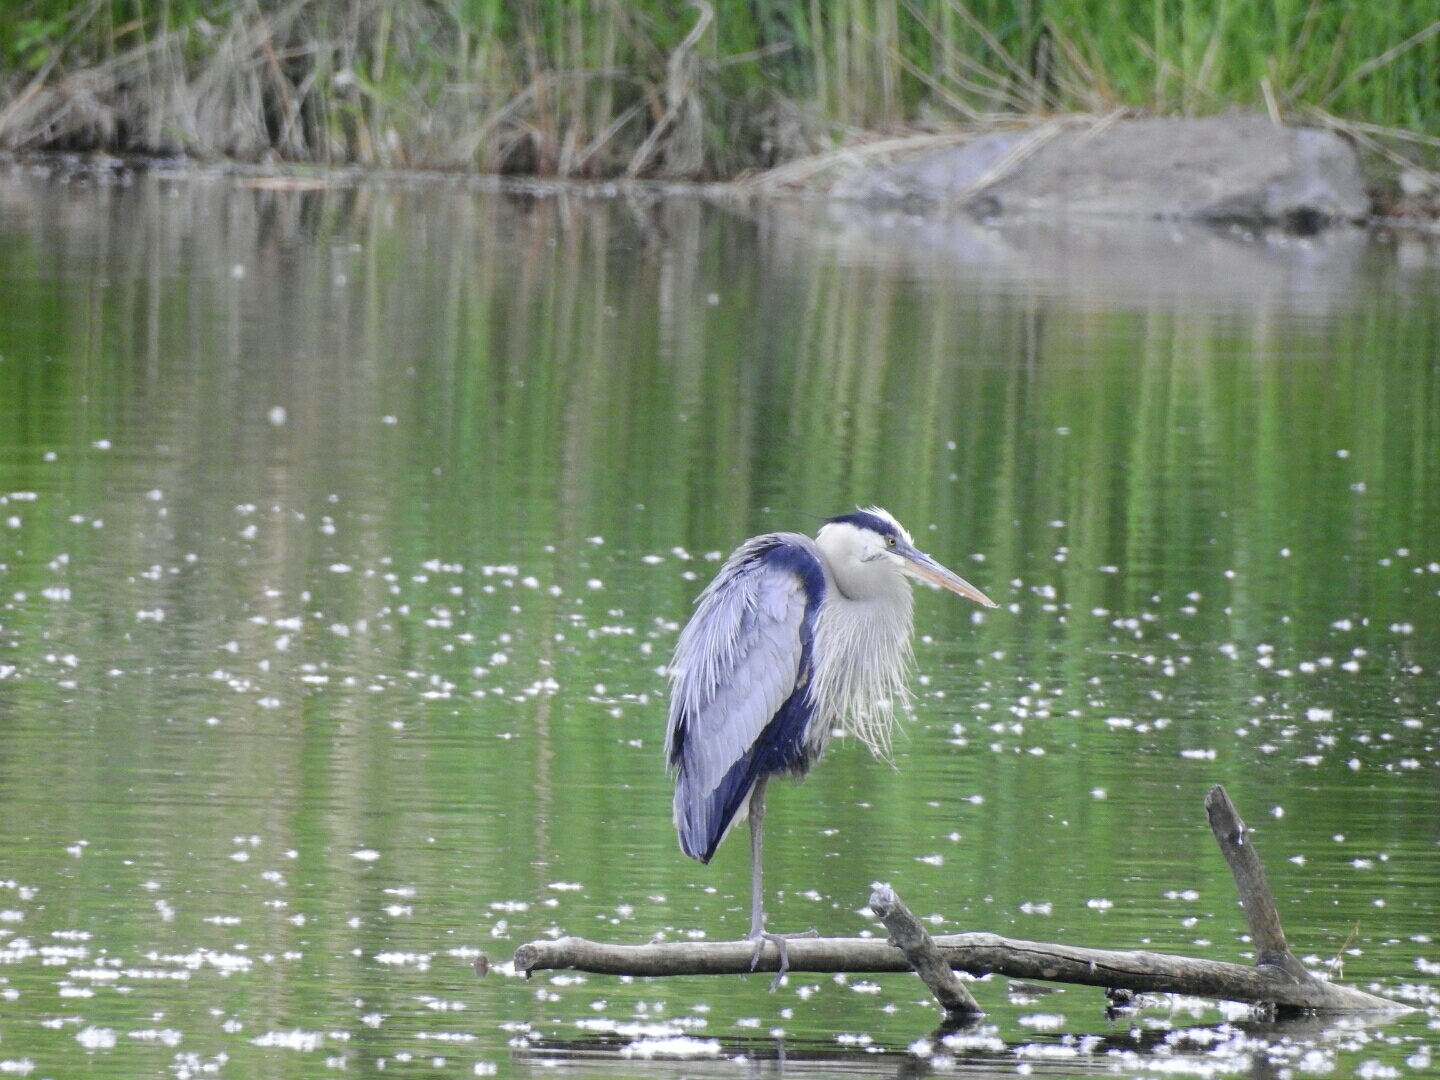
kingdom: Animalia
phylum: Chordata
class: Aves
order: Pelecaniformes
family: Ardeidae
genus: Ardea
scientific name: Ardea herodias
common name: Great blue heron
